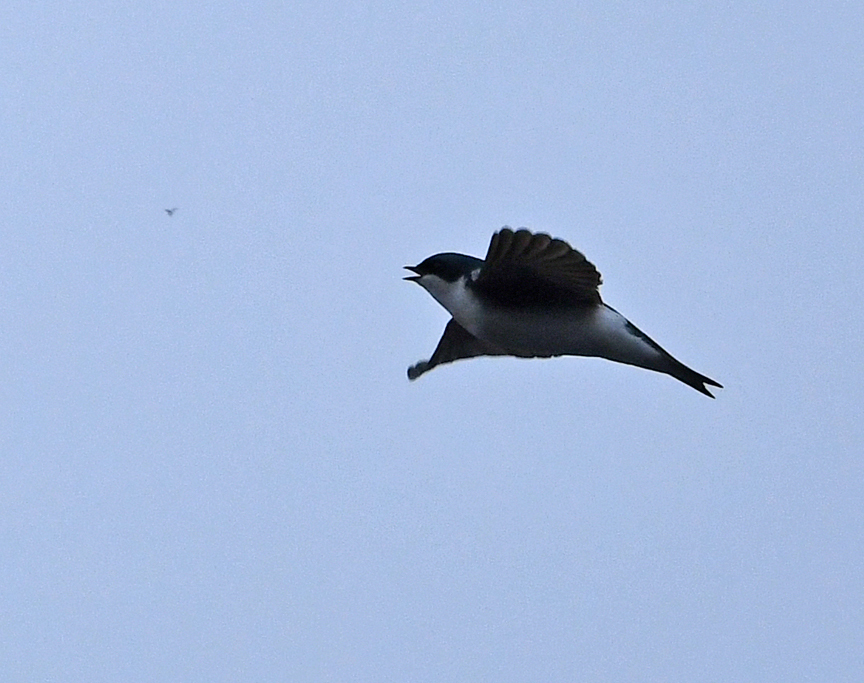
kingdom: Animalia
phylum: Chordata
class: Aves
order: Passeriformes
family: Hirundinidae
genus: Tachycineta
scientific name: Tachycineta bicolor
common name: Tree swallow
